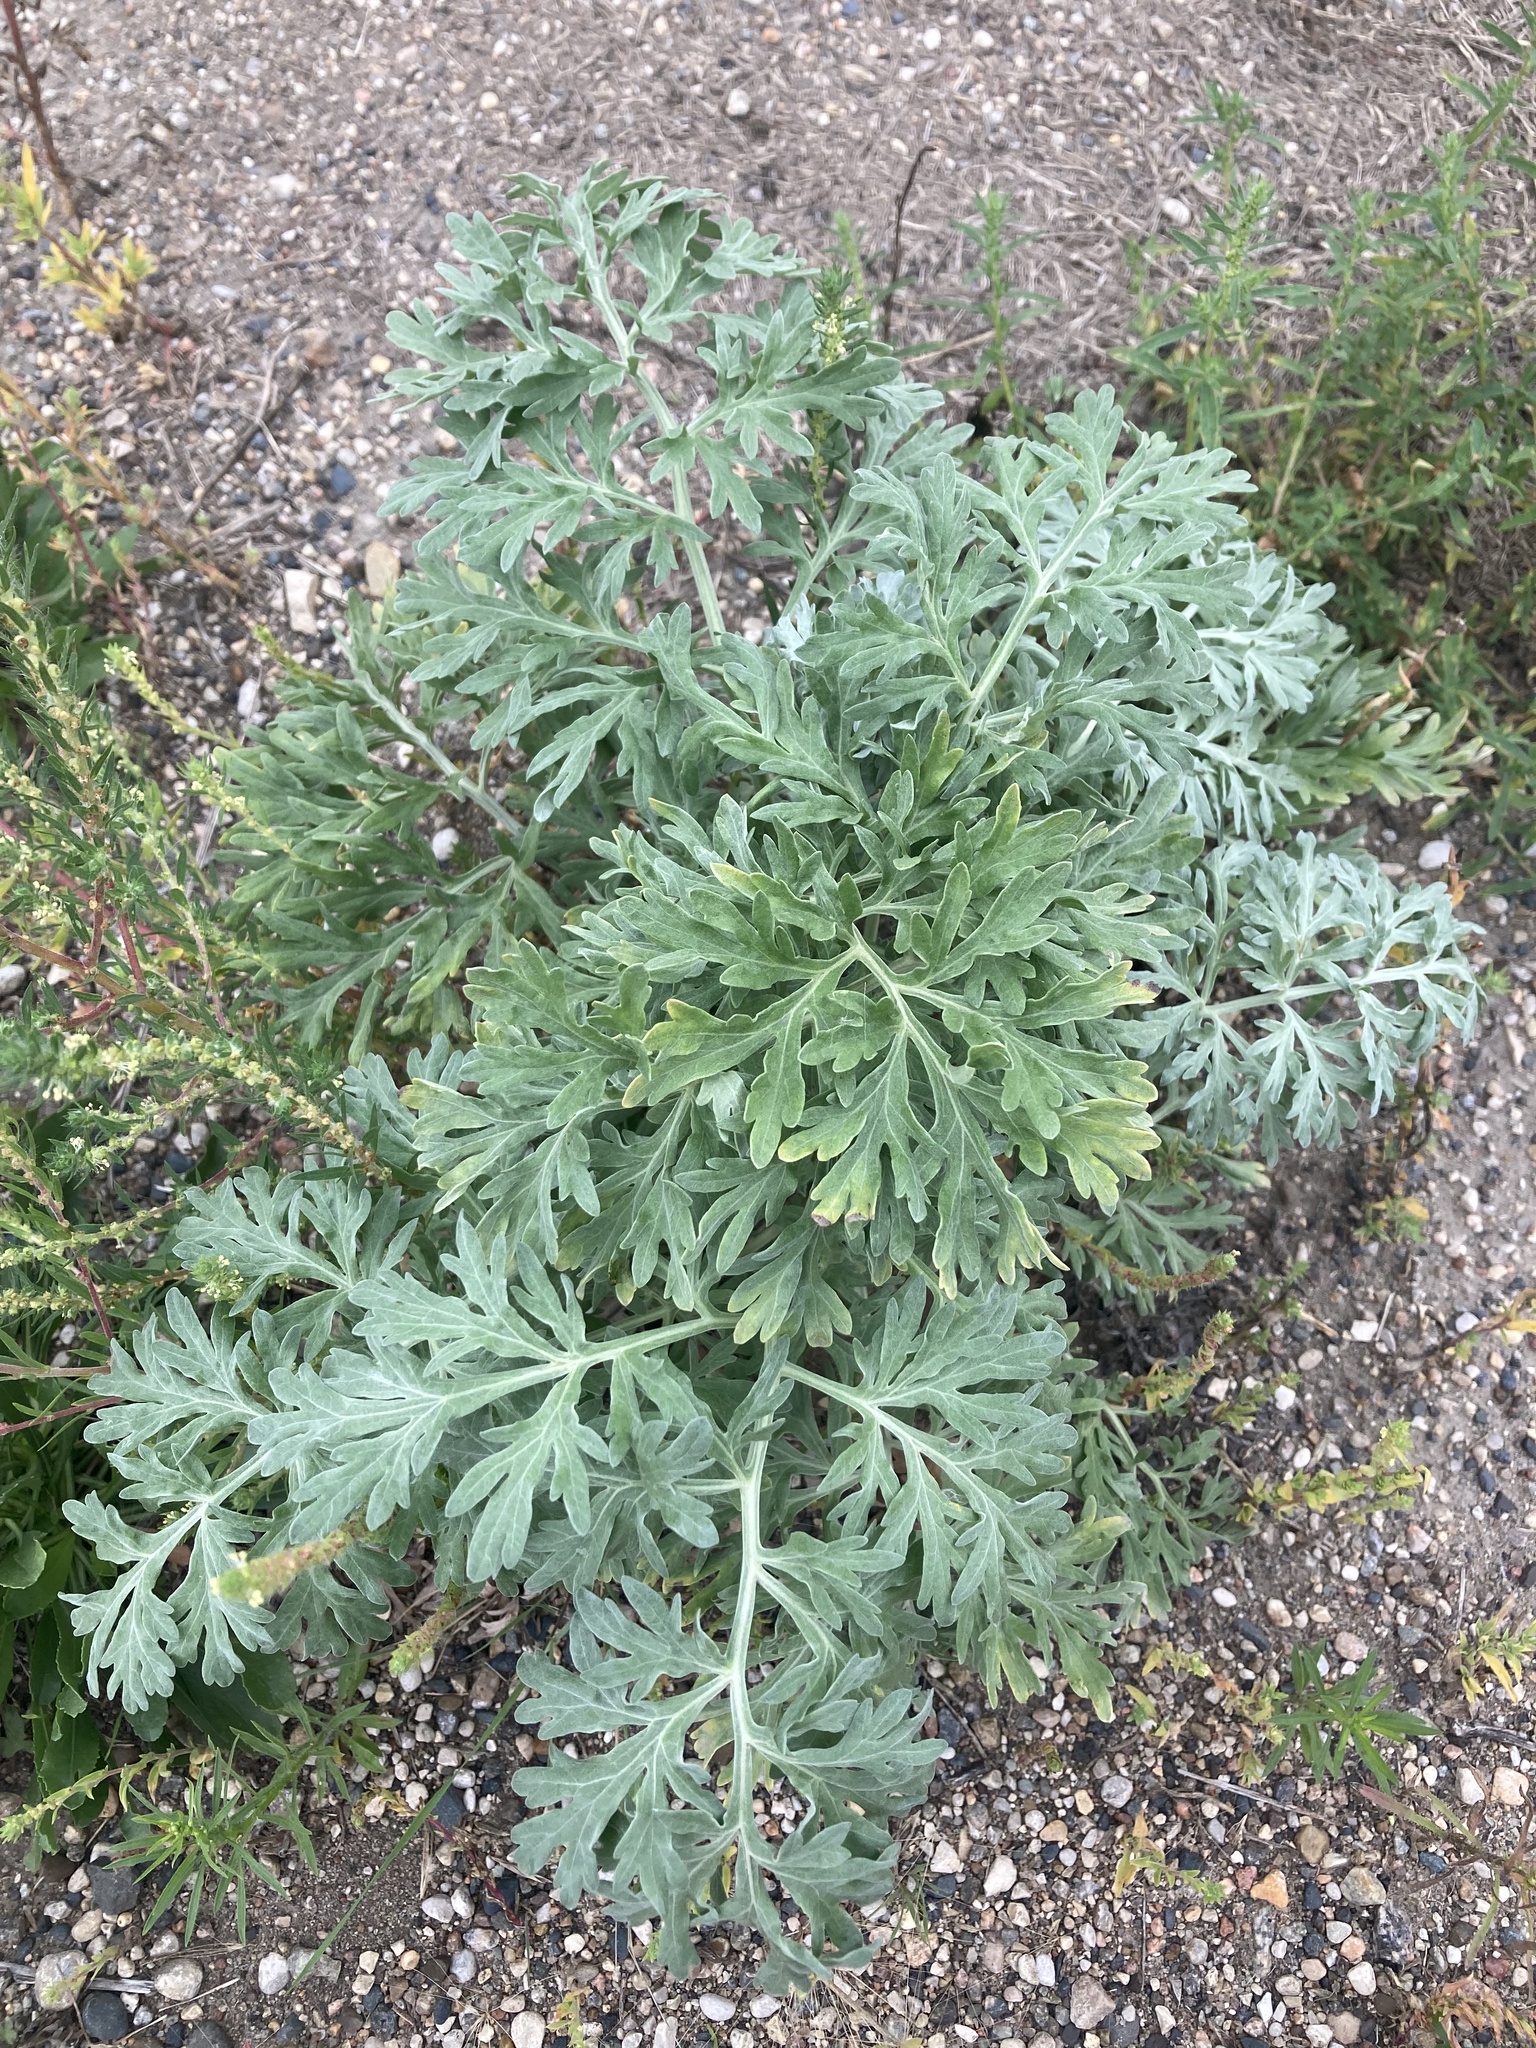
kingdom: Plantae
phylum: Tracheophyta
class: Magnoliopsida
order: Asterales
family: Asteraceae
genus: Artemisia
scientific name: Artemisia absinthium
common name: Wormwood
